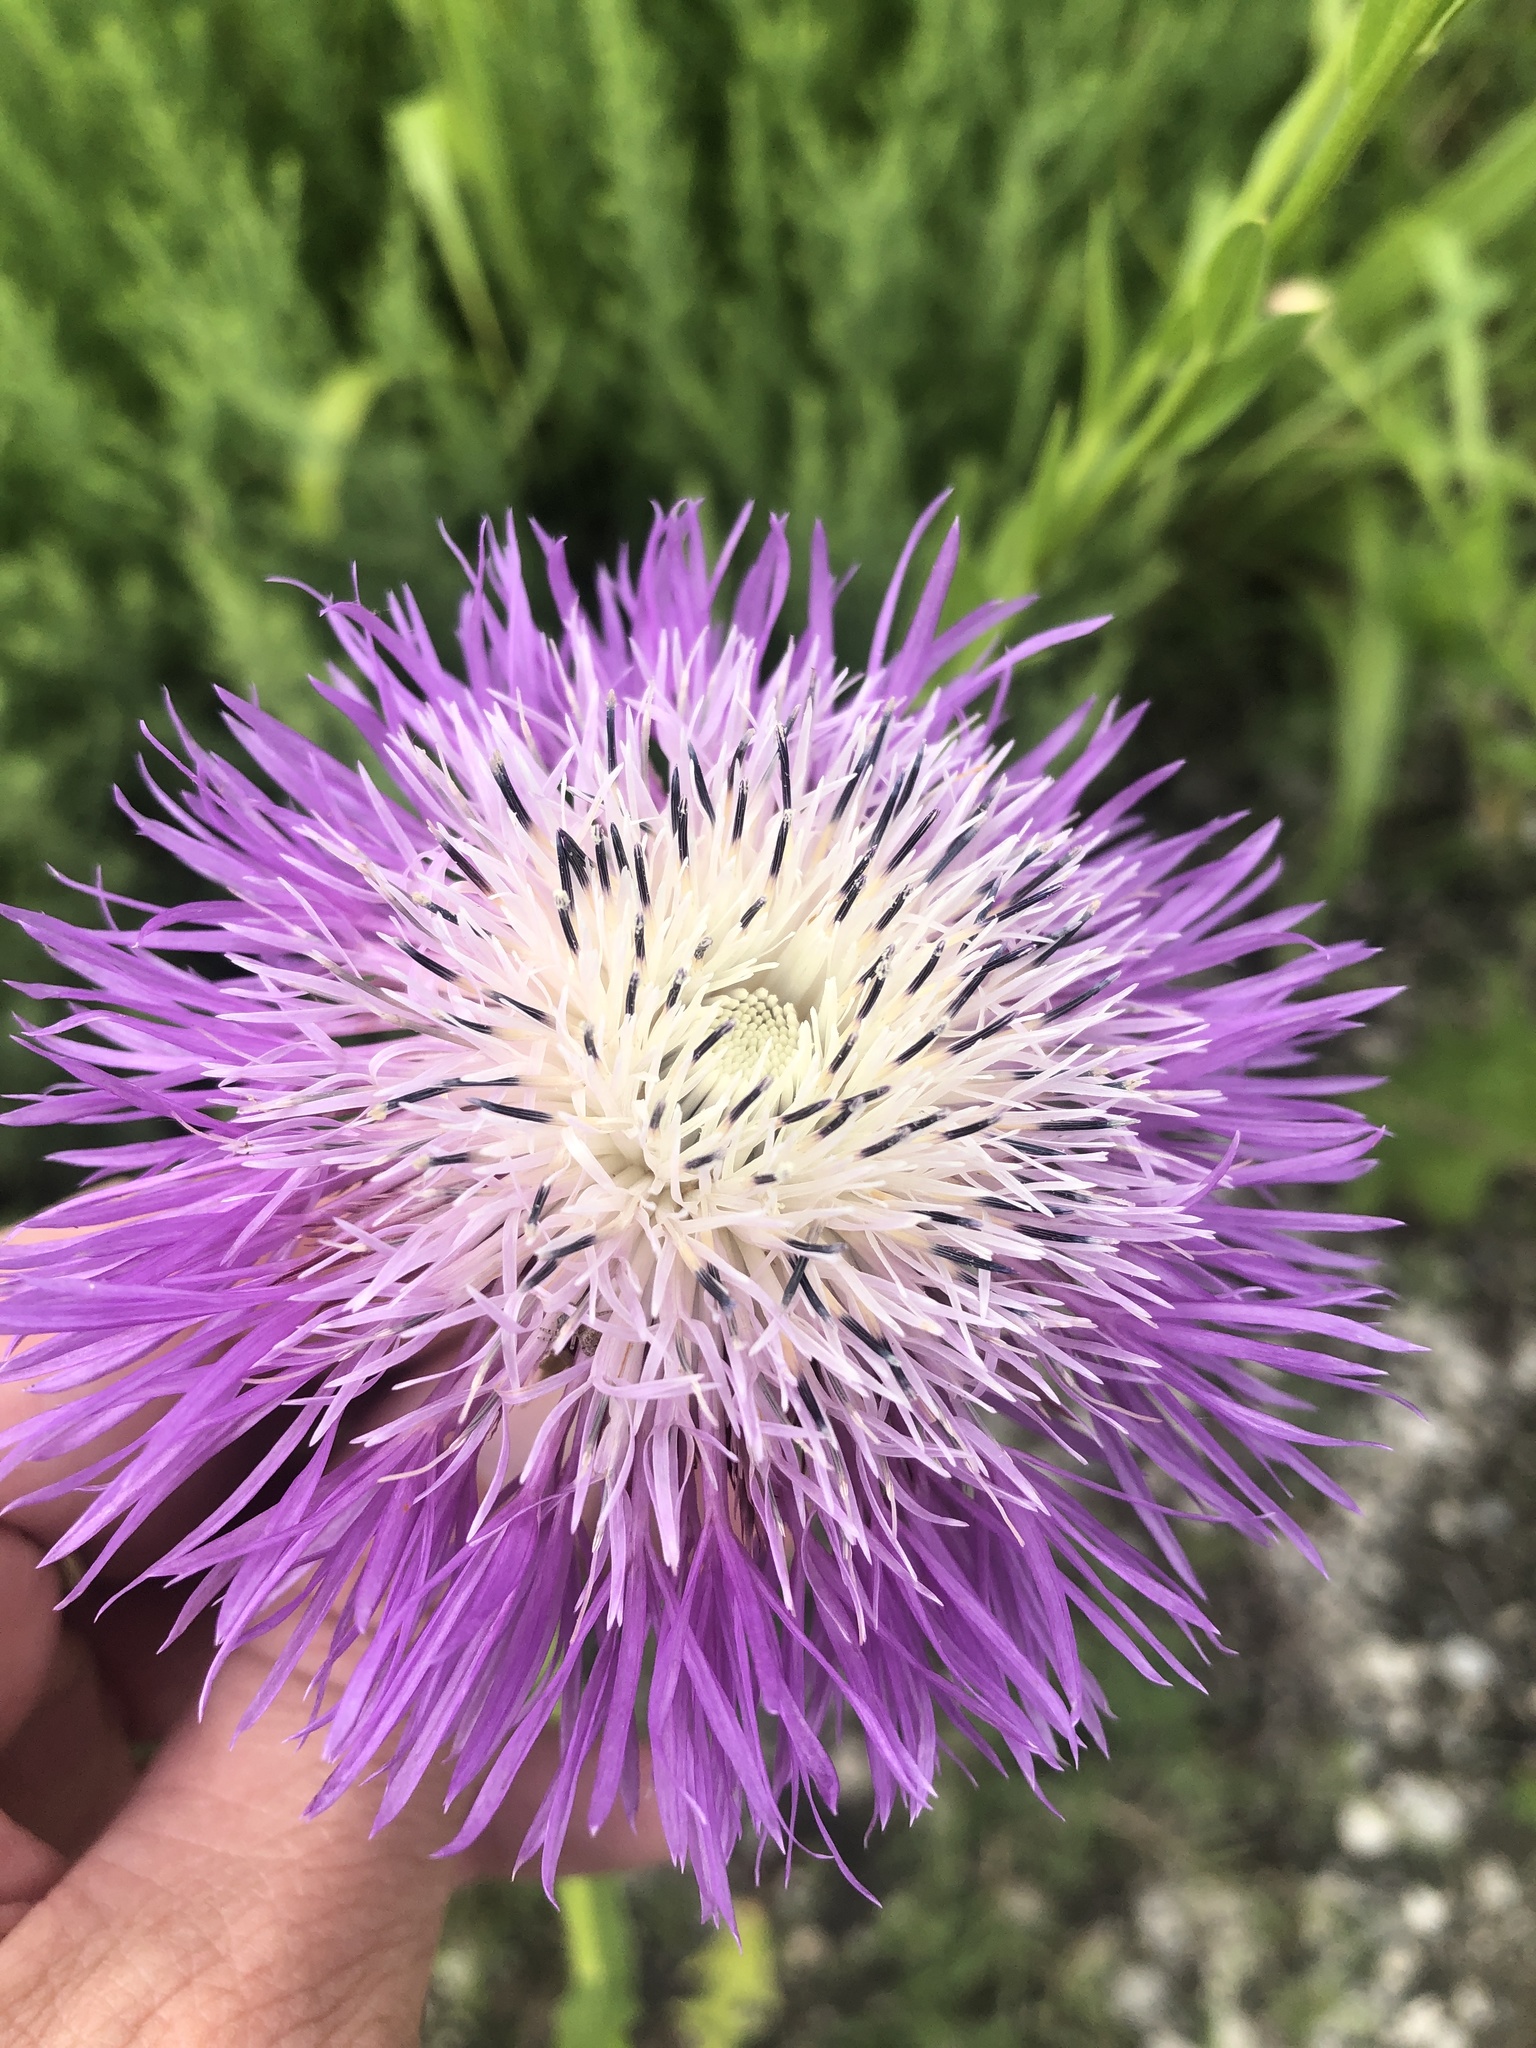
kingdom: Plantae
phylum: Tracheophyta
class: Magnoliopsida
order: Asterales
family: Asteraceae
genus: Plectocephalus
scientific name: Plectocephalus americanus
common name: American basket-flower
